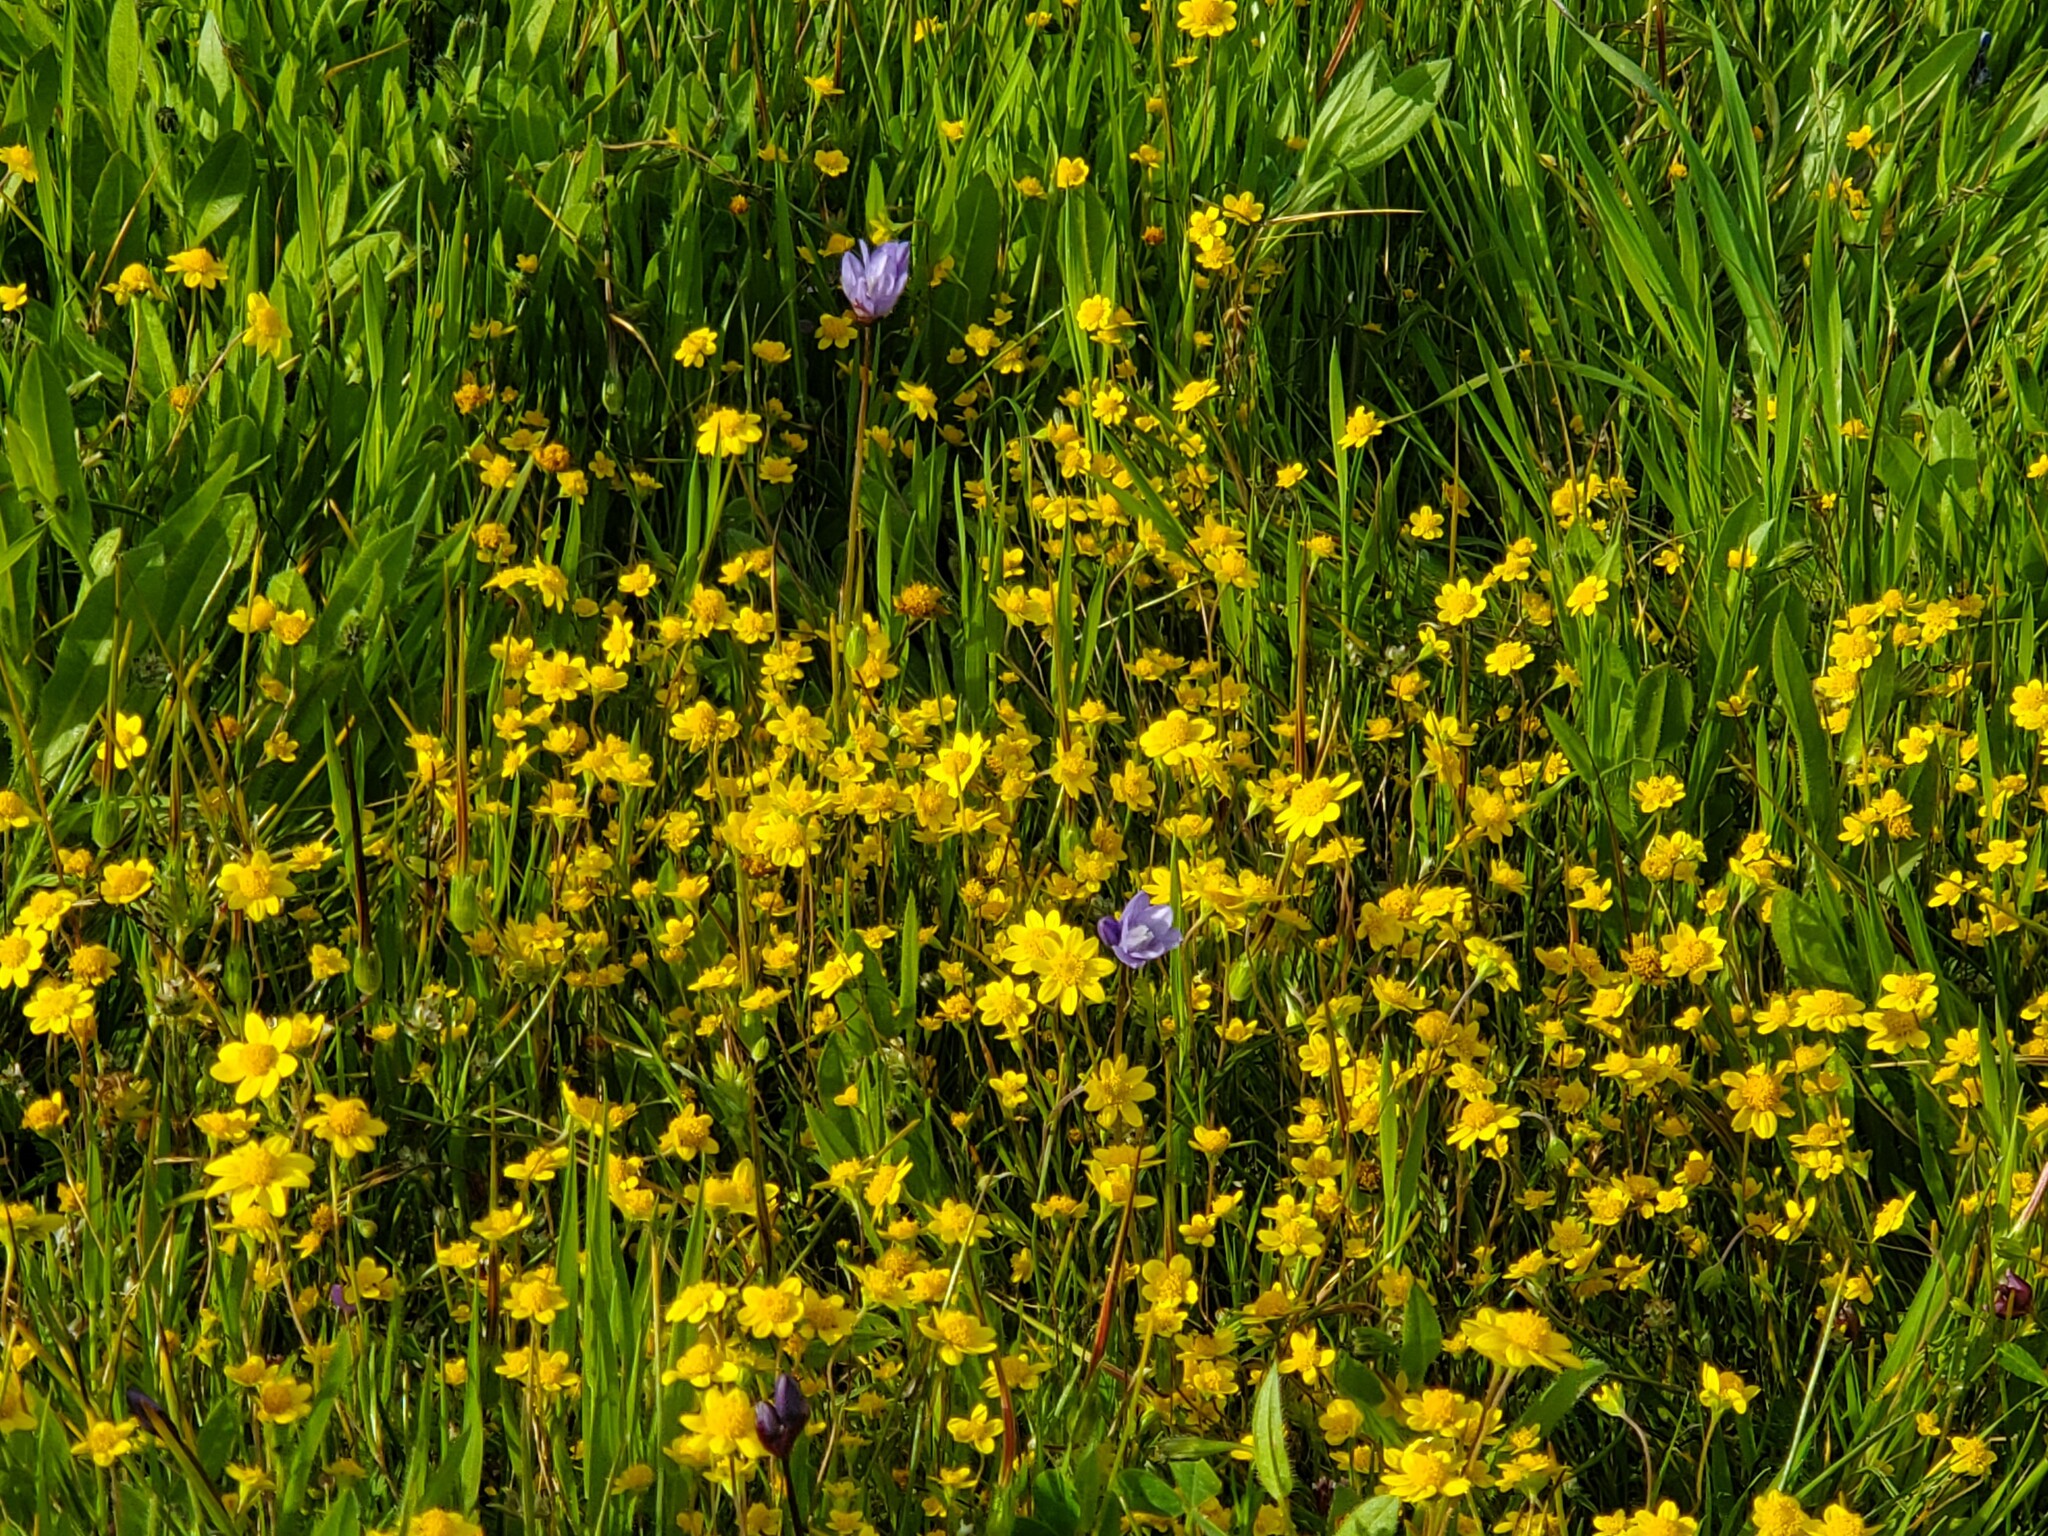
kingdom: Plantae
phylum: Tracheophyta
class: Magnoliopsida
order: Asterales
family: Asteraceae
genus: Lasthenia
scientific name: Lasthenia californica
